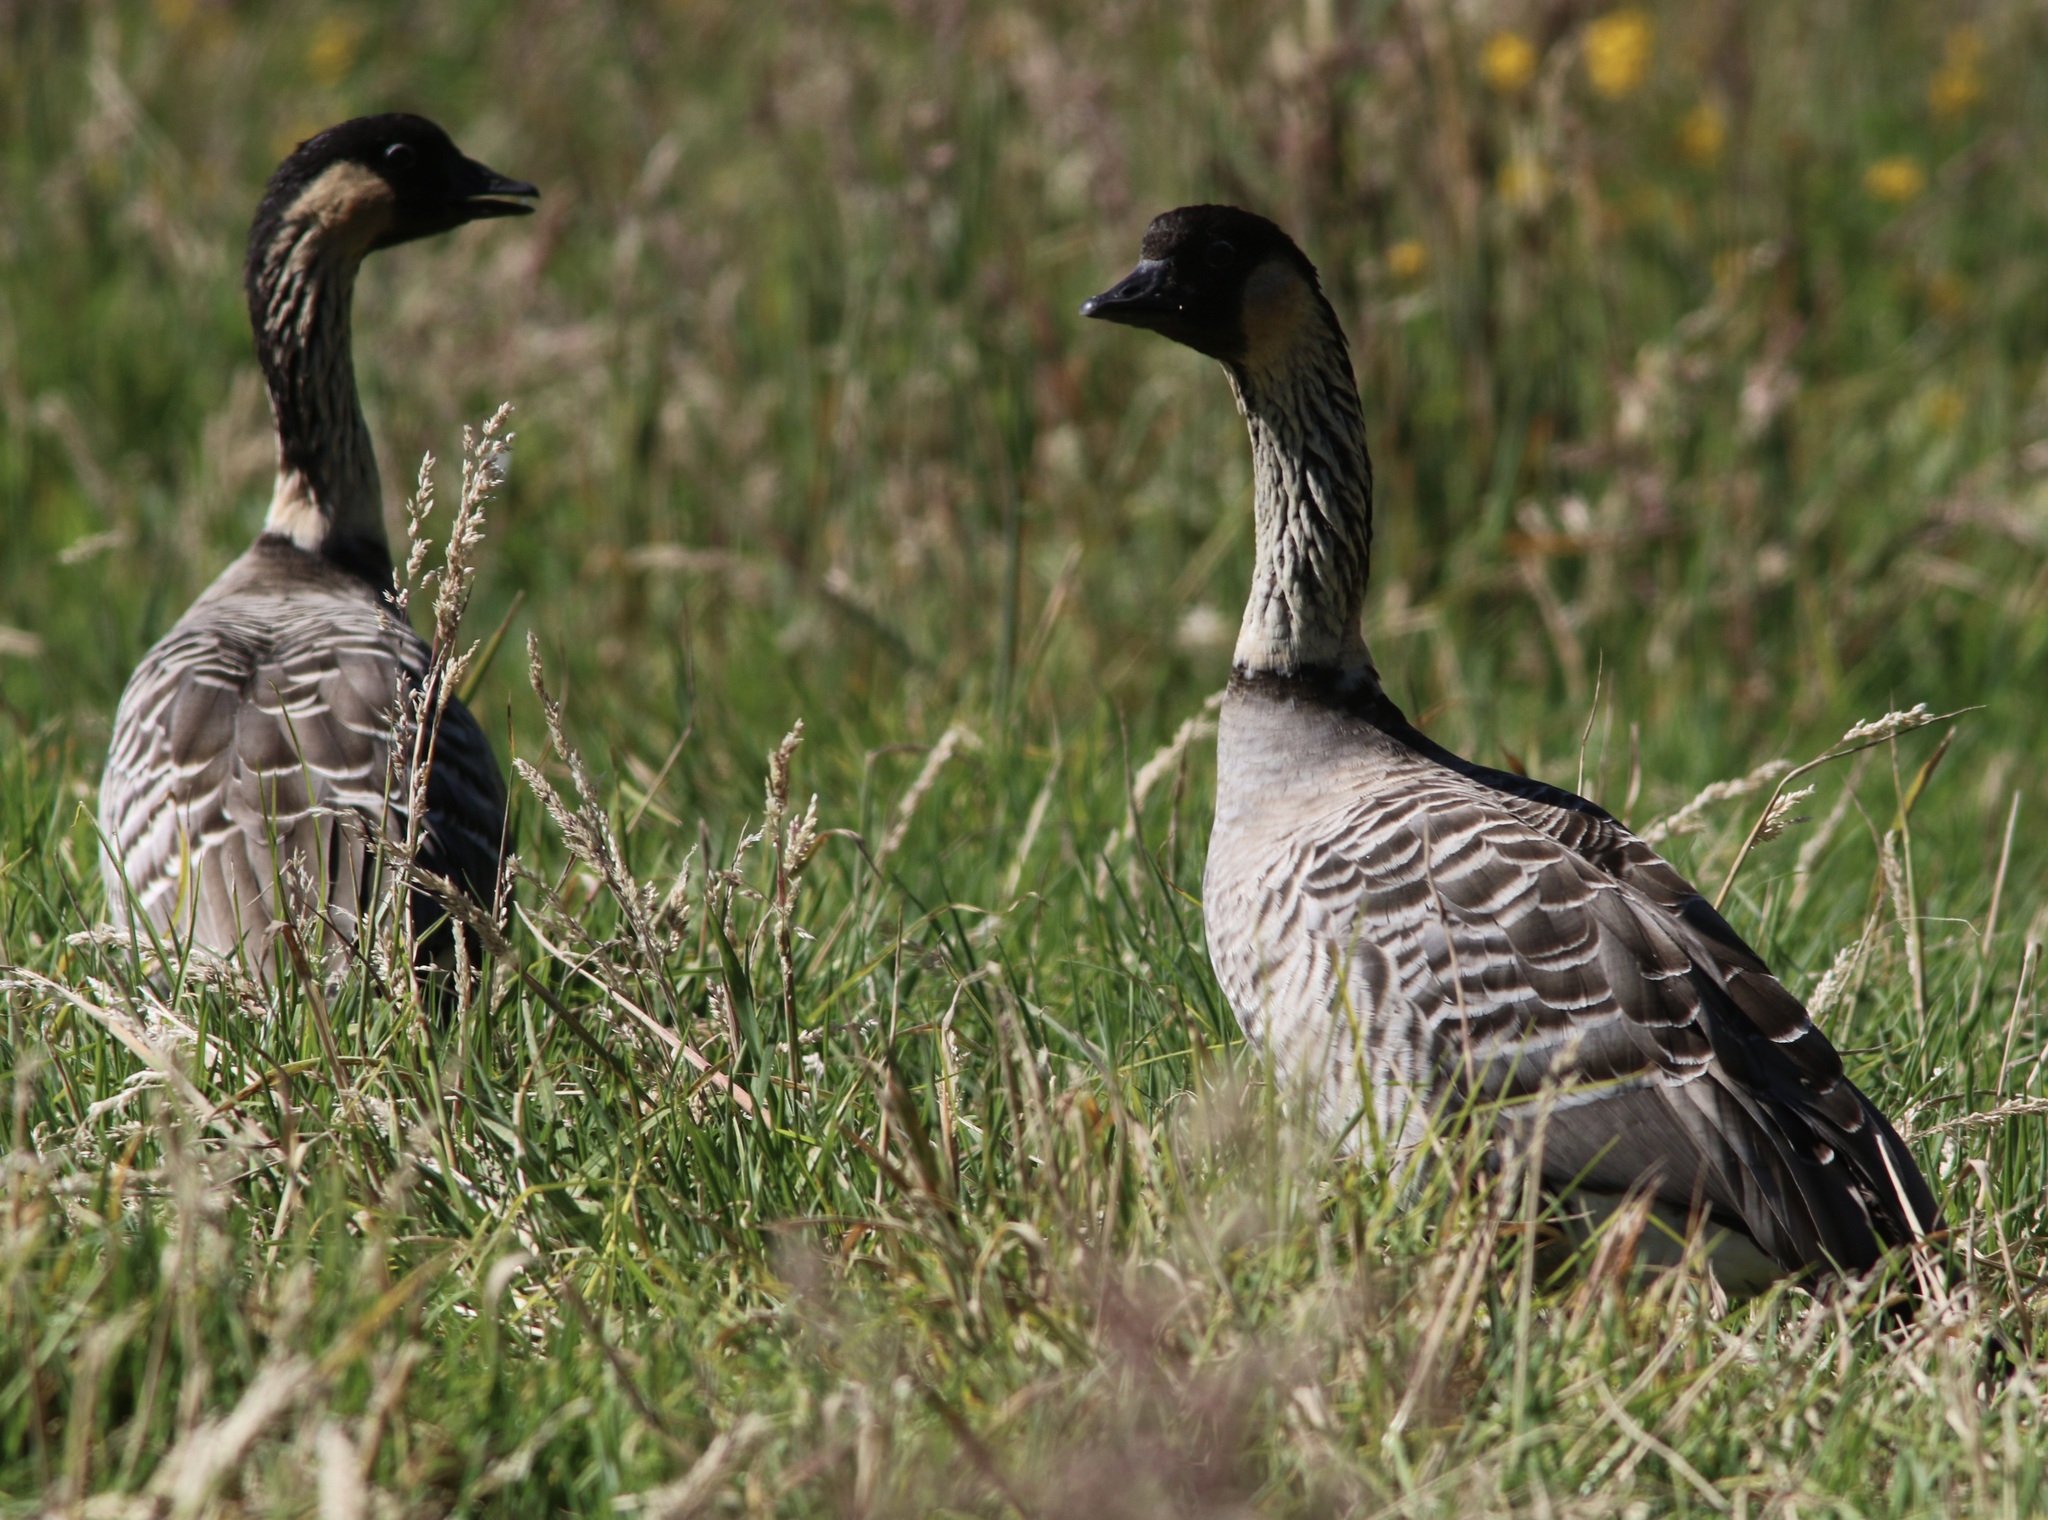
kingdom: Animalia
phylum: Chordata
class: Aves
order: Anseriformes
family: Anatidae
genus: Branta
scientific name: Branta sandvicensis
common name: Nene
